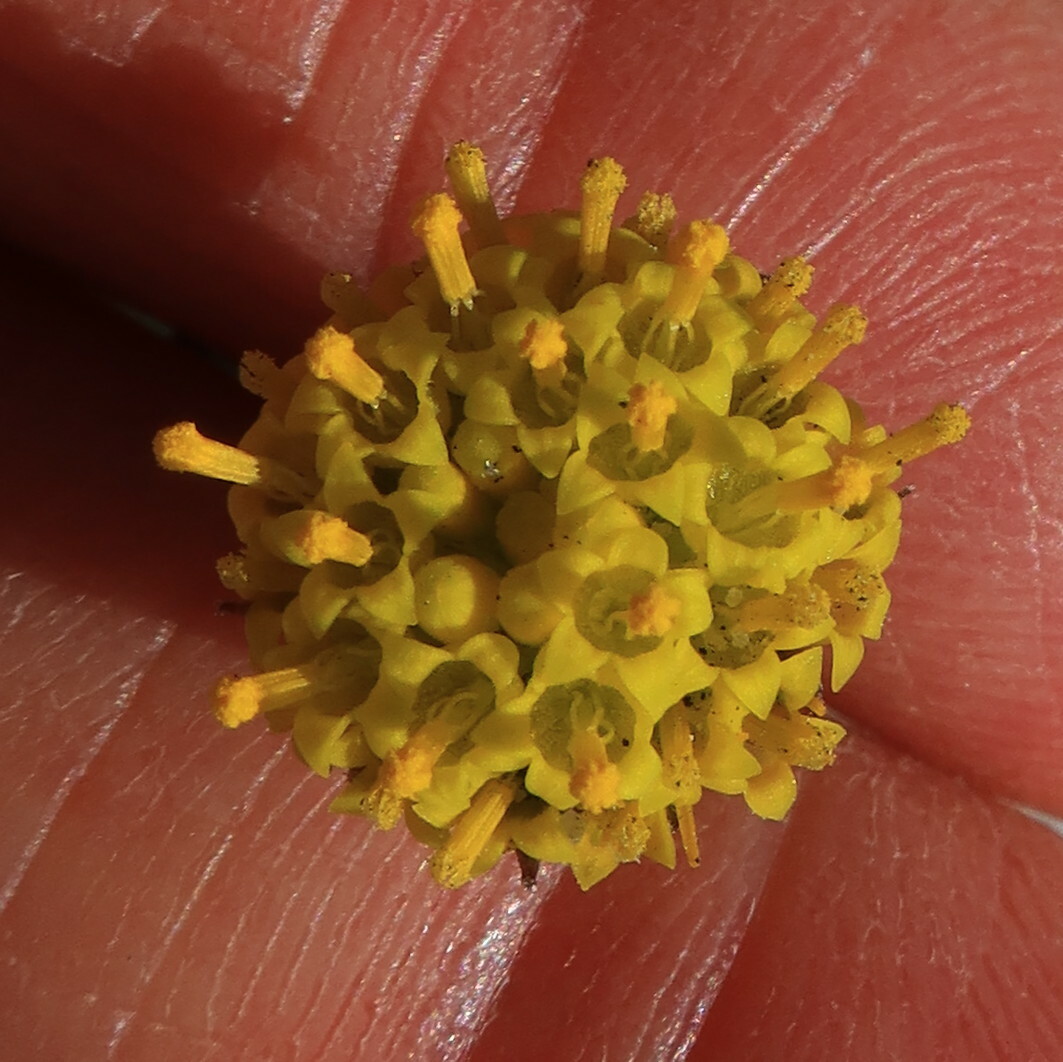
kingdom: Plantae
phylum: Tracheophyta
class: Magnoliopsida
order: Asterales
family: Asteraceae
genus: Othonna
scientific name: Othonna undulosa
